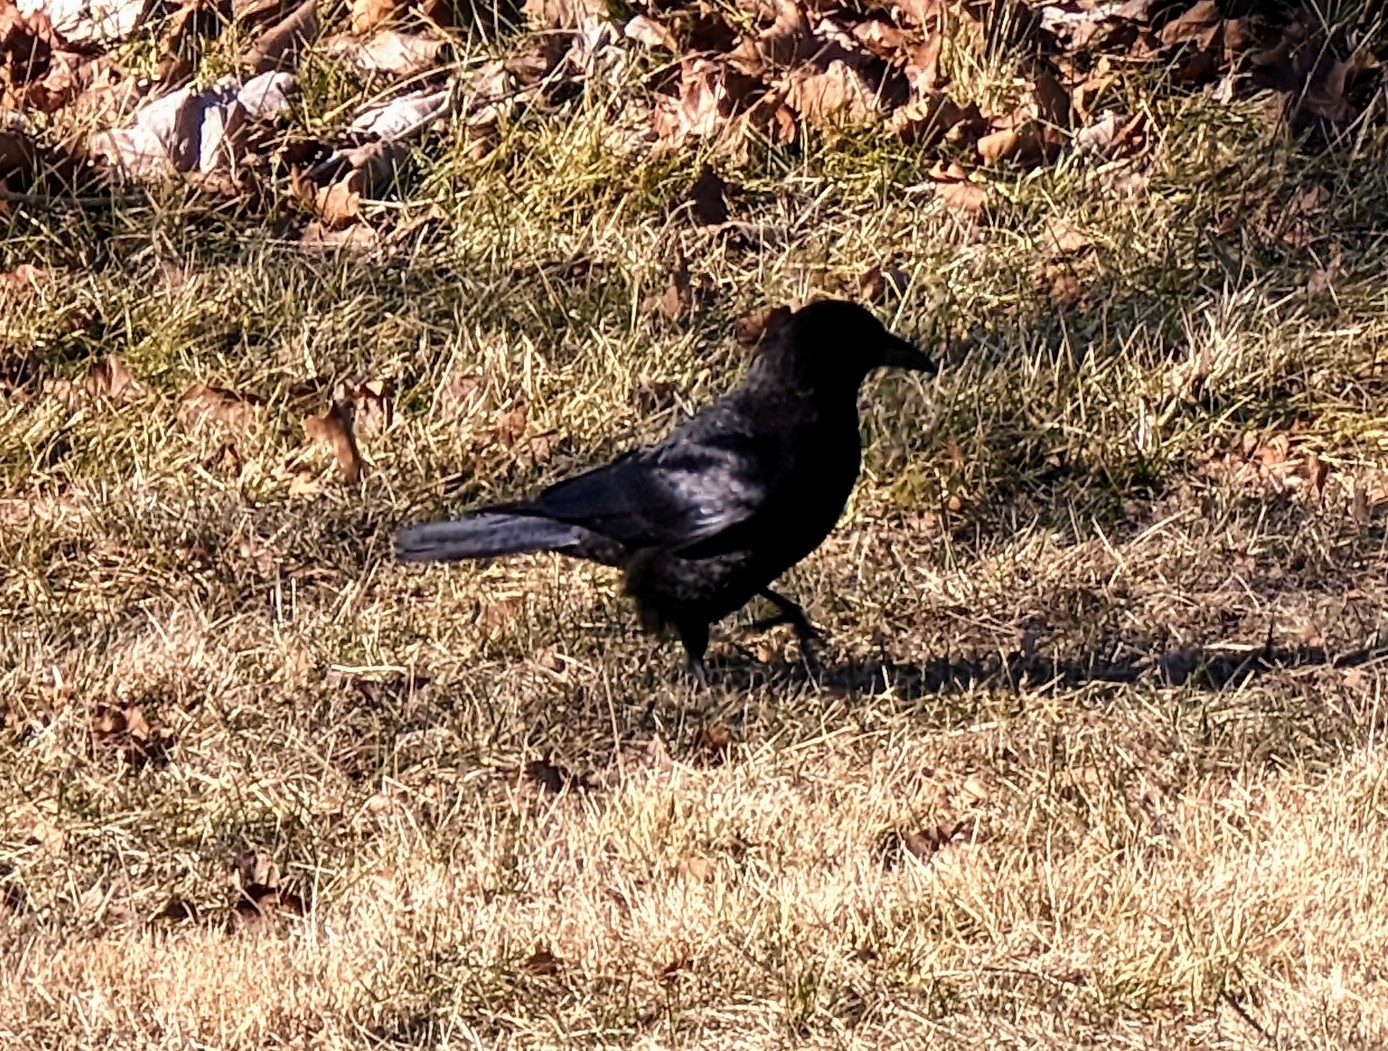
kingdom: Animalia
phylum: Chordata
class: Aves
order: Passeriformes
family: Corvidae
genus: Corvus
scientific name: Corvus brachyrhynchos
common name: American crow
